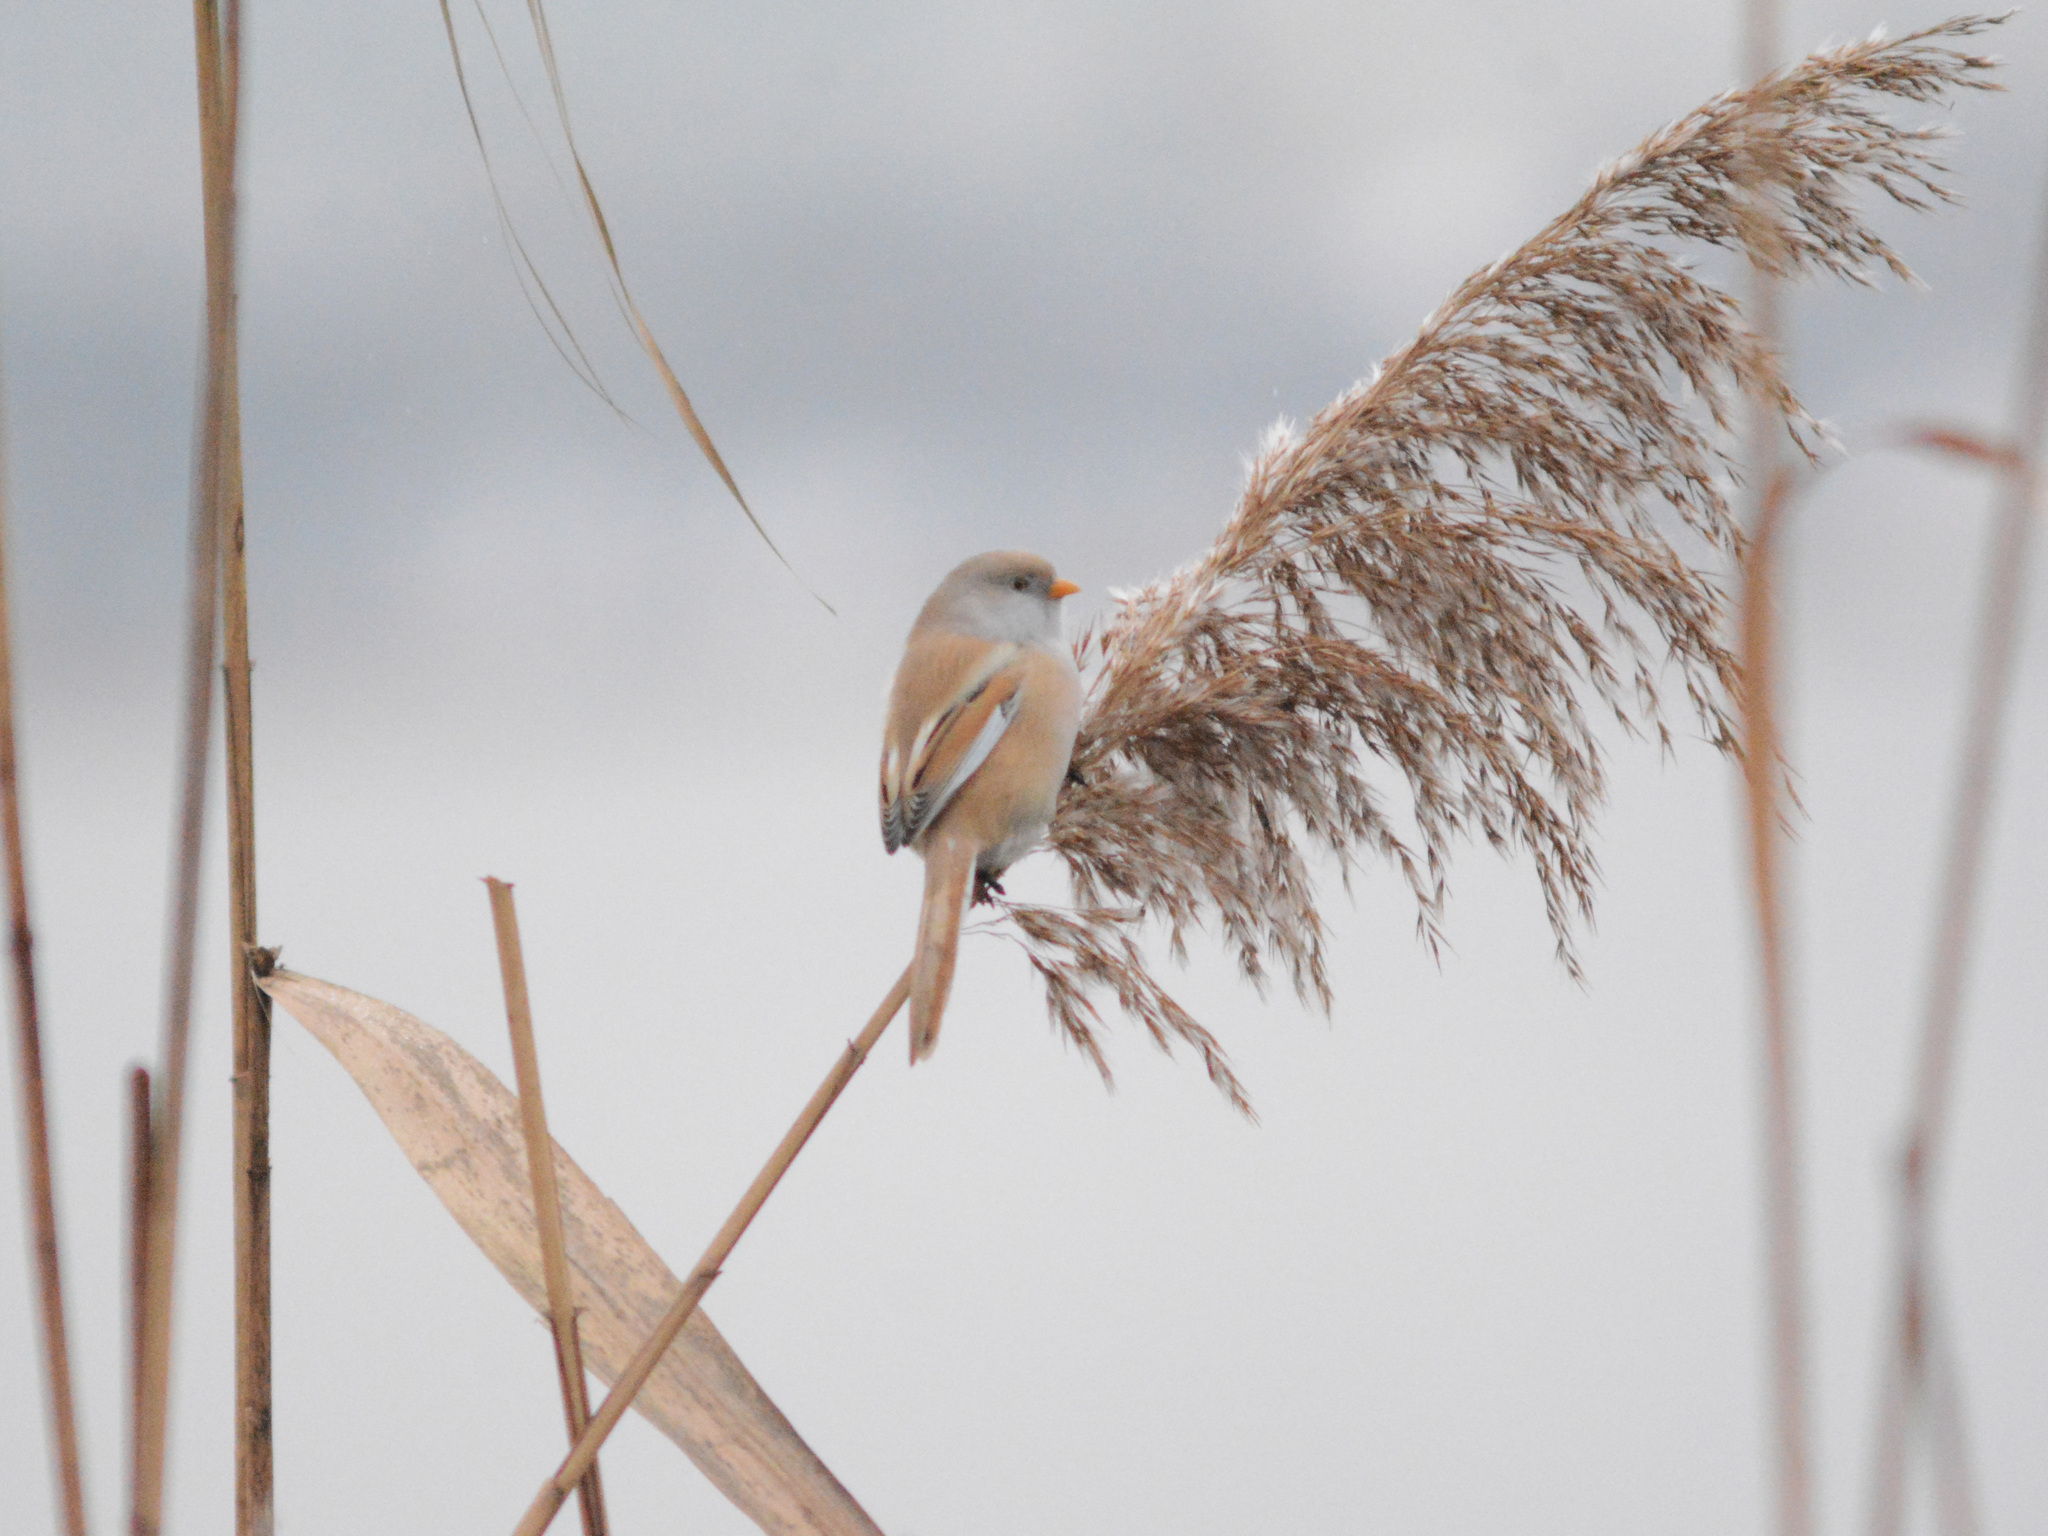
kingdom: Animalia
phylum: Chordata
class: Aves
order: Passeriformes
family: Panuridae
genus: Panurus
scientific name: Panurus biarmicus
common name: Bearded reedling
